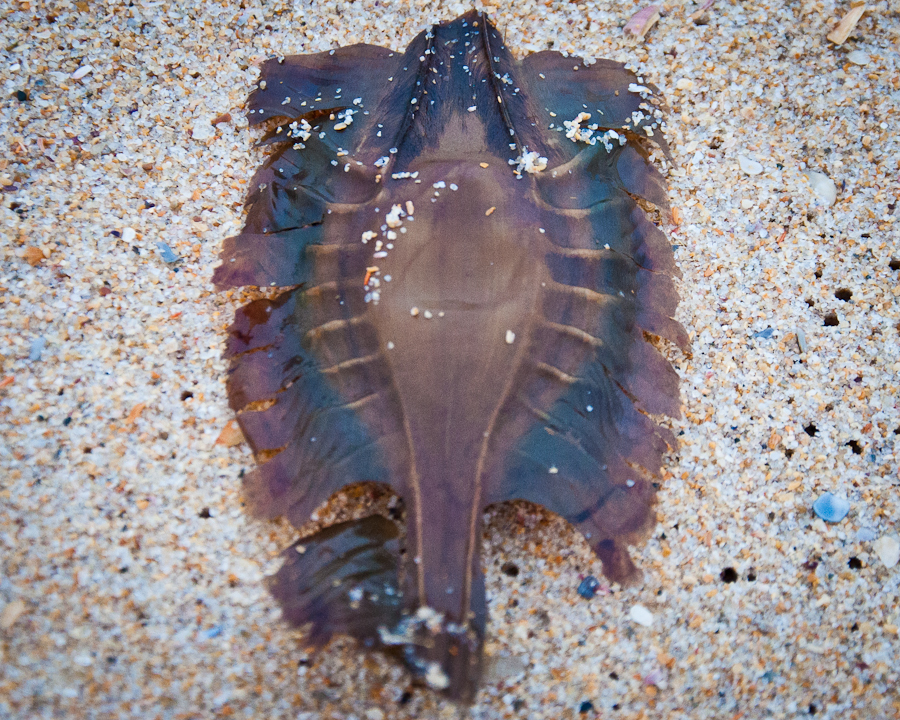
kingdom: Animalia
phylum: Chordata
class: Holocephali
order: Chimaeriformes
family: Callorhinchidae
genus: Callorhinchus
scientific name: Callorhinchus capensis
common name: Cape elephantfish
